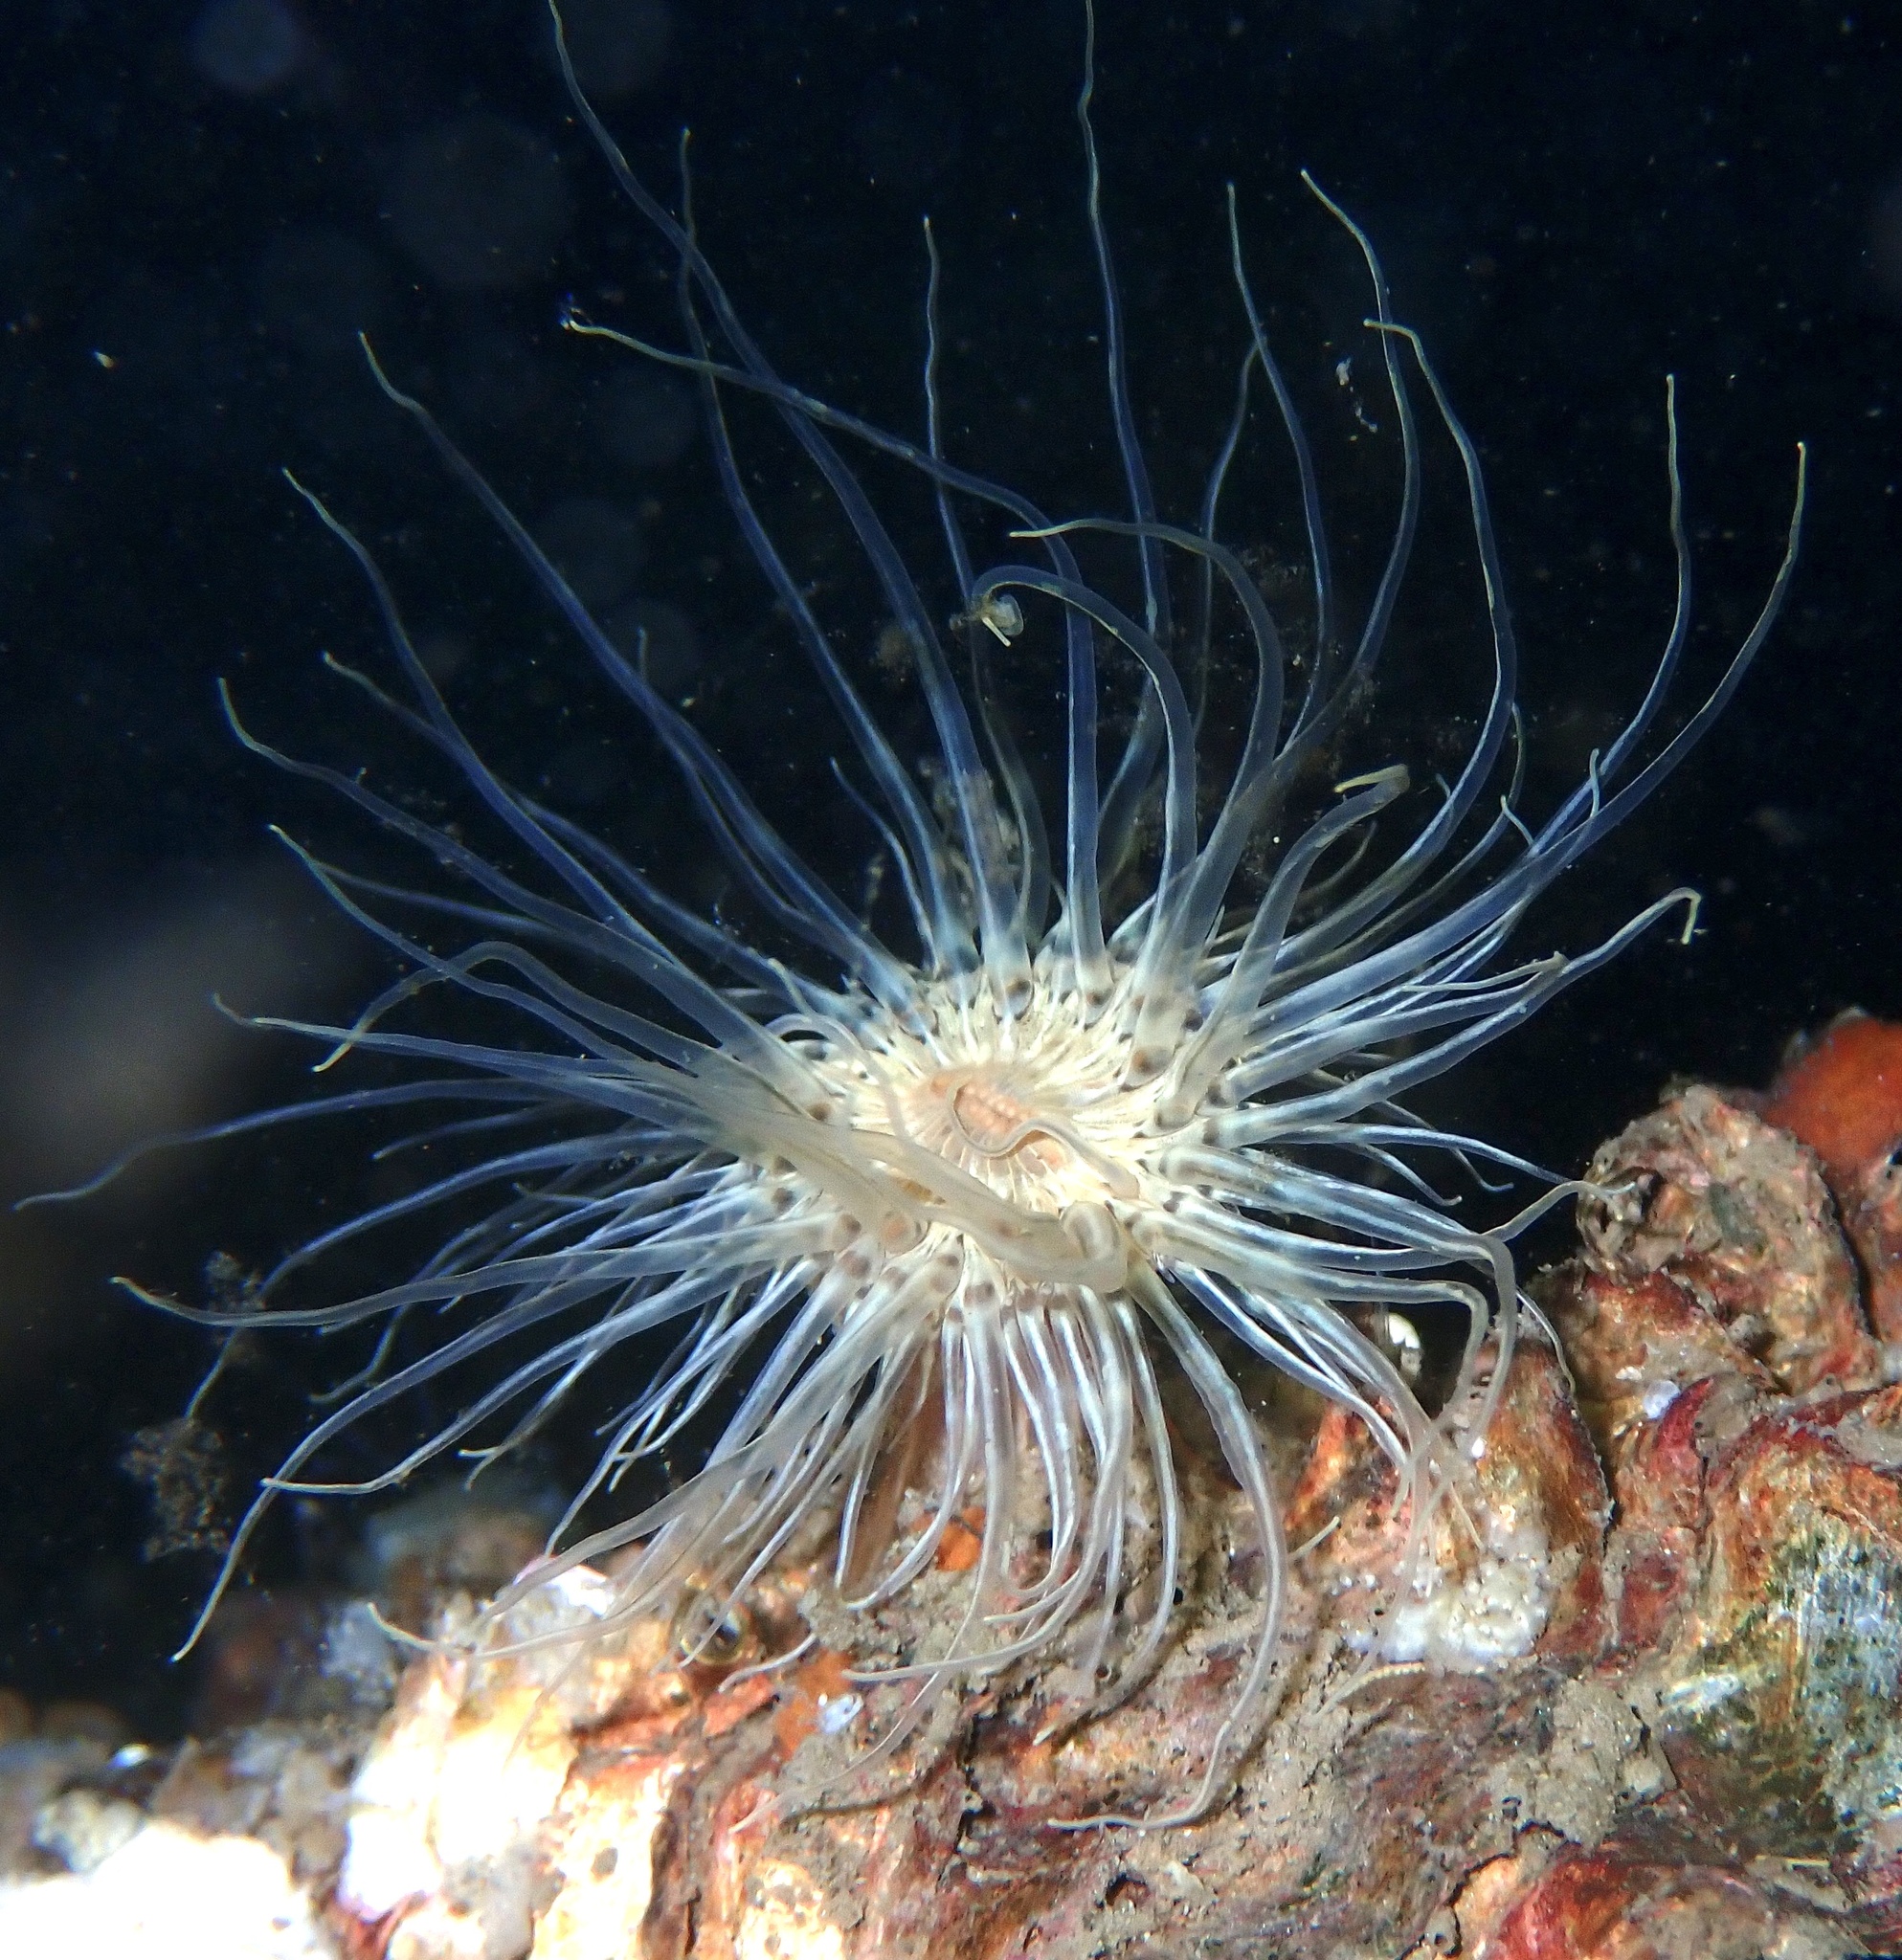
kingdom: Animalia
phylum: Cnidaria
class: Anthozoa
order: Actiniaria
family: Sagartiidae
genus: Sagartia
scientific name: Sagartia undata
